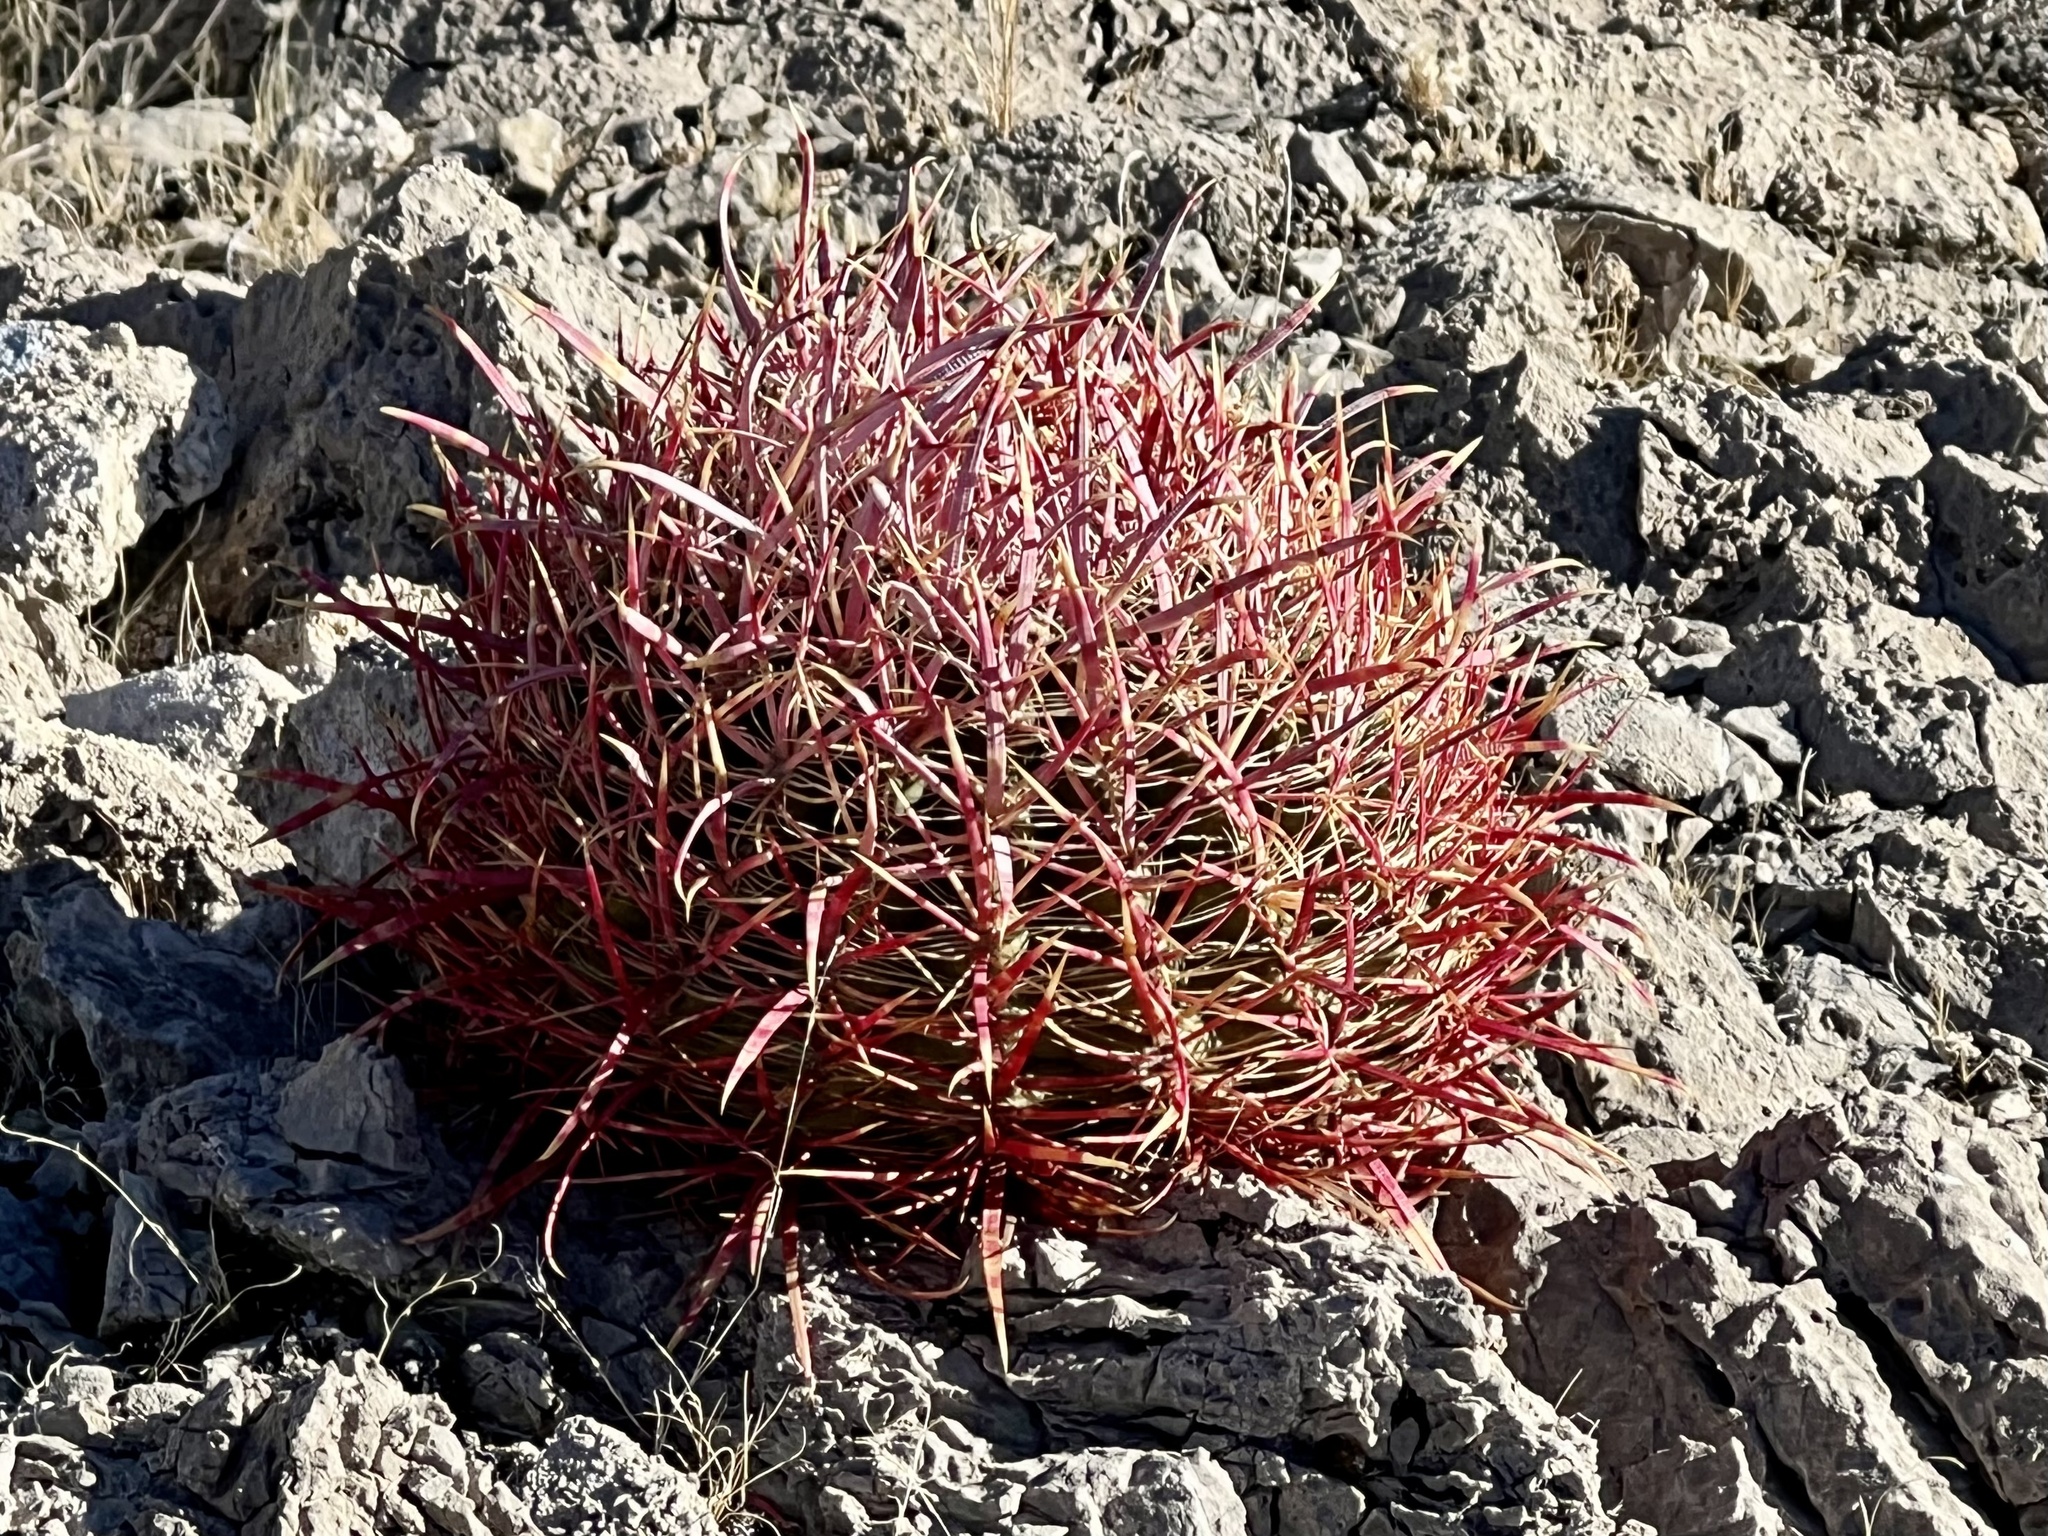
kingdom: Plantae
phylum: Tracheophyta
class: Magnoliopsida
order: Caryophyllales
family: Cactaceae
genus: Ferocactus
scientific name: Ferocactus cylindraceus
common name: California barrel cactus
